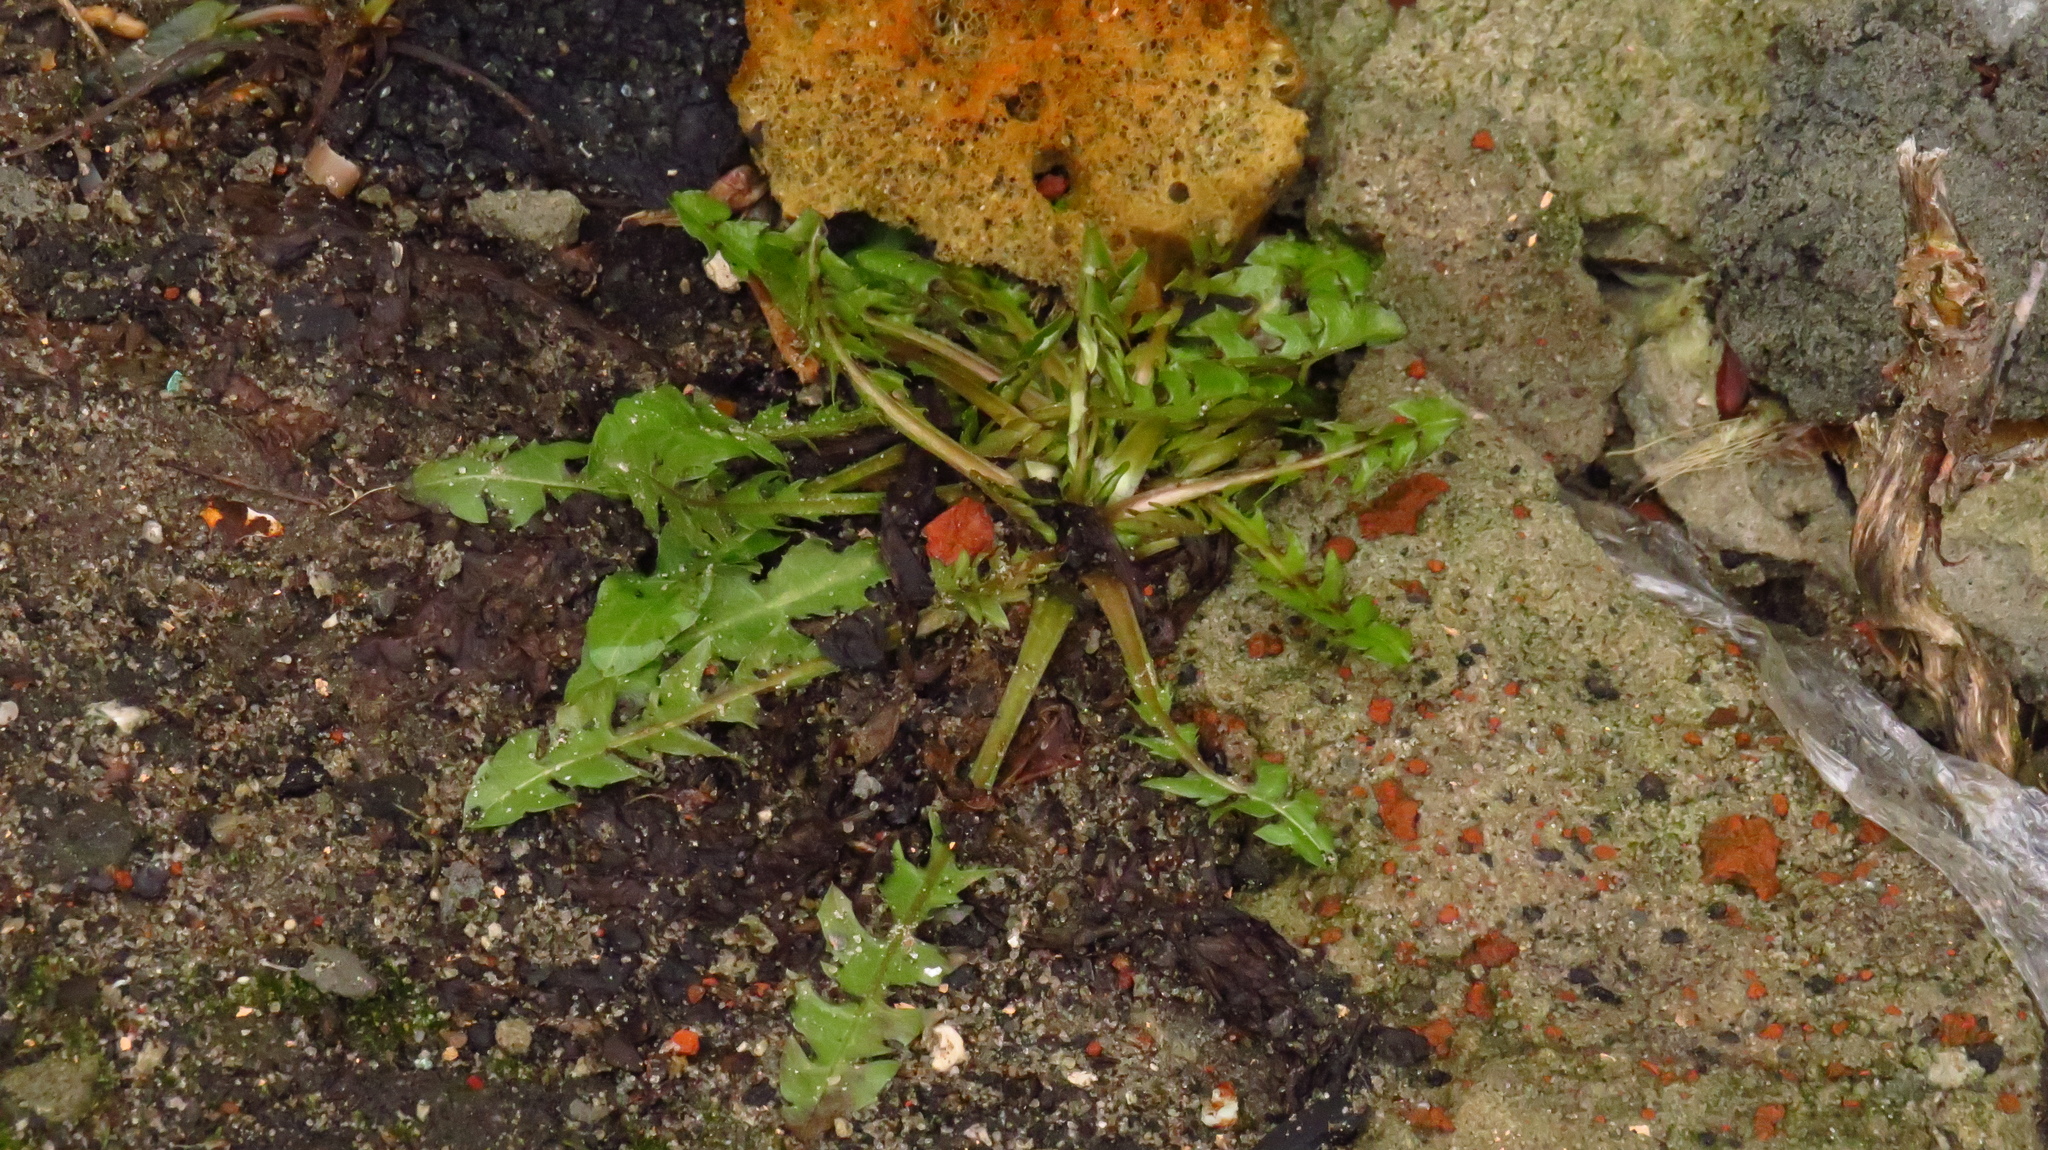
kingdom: Plantae
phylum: Tracheophyta
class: Magnoliopsida
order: Asterales
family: Asteraceae
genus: Taraxacum
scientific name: Taraxacum officinale
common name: Common dandelion
